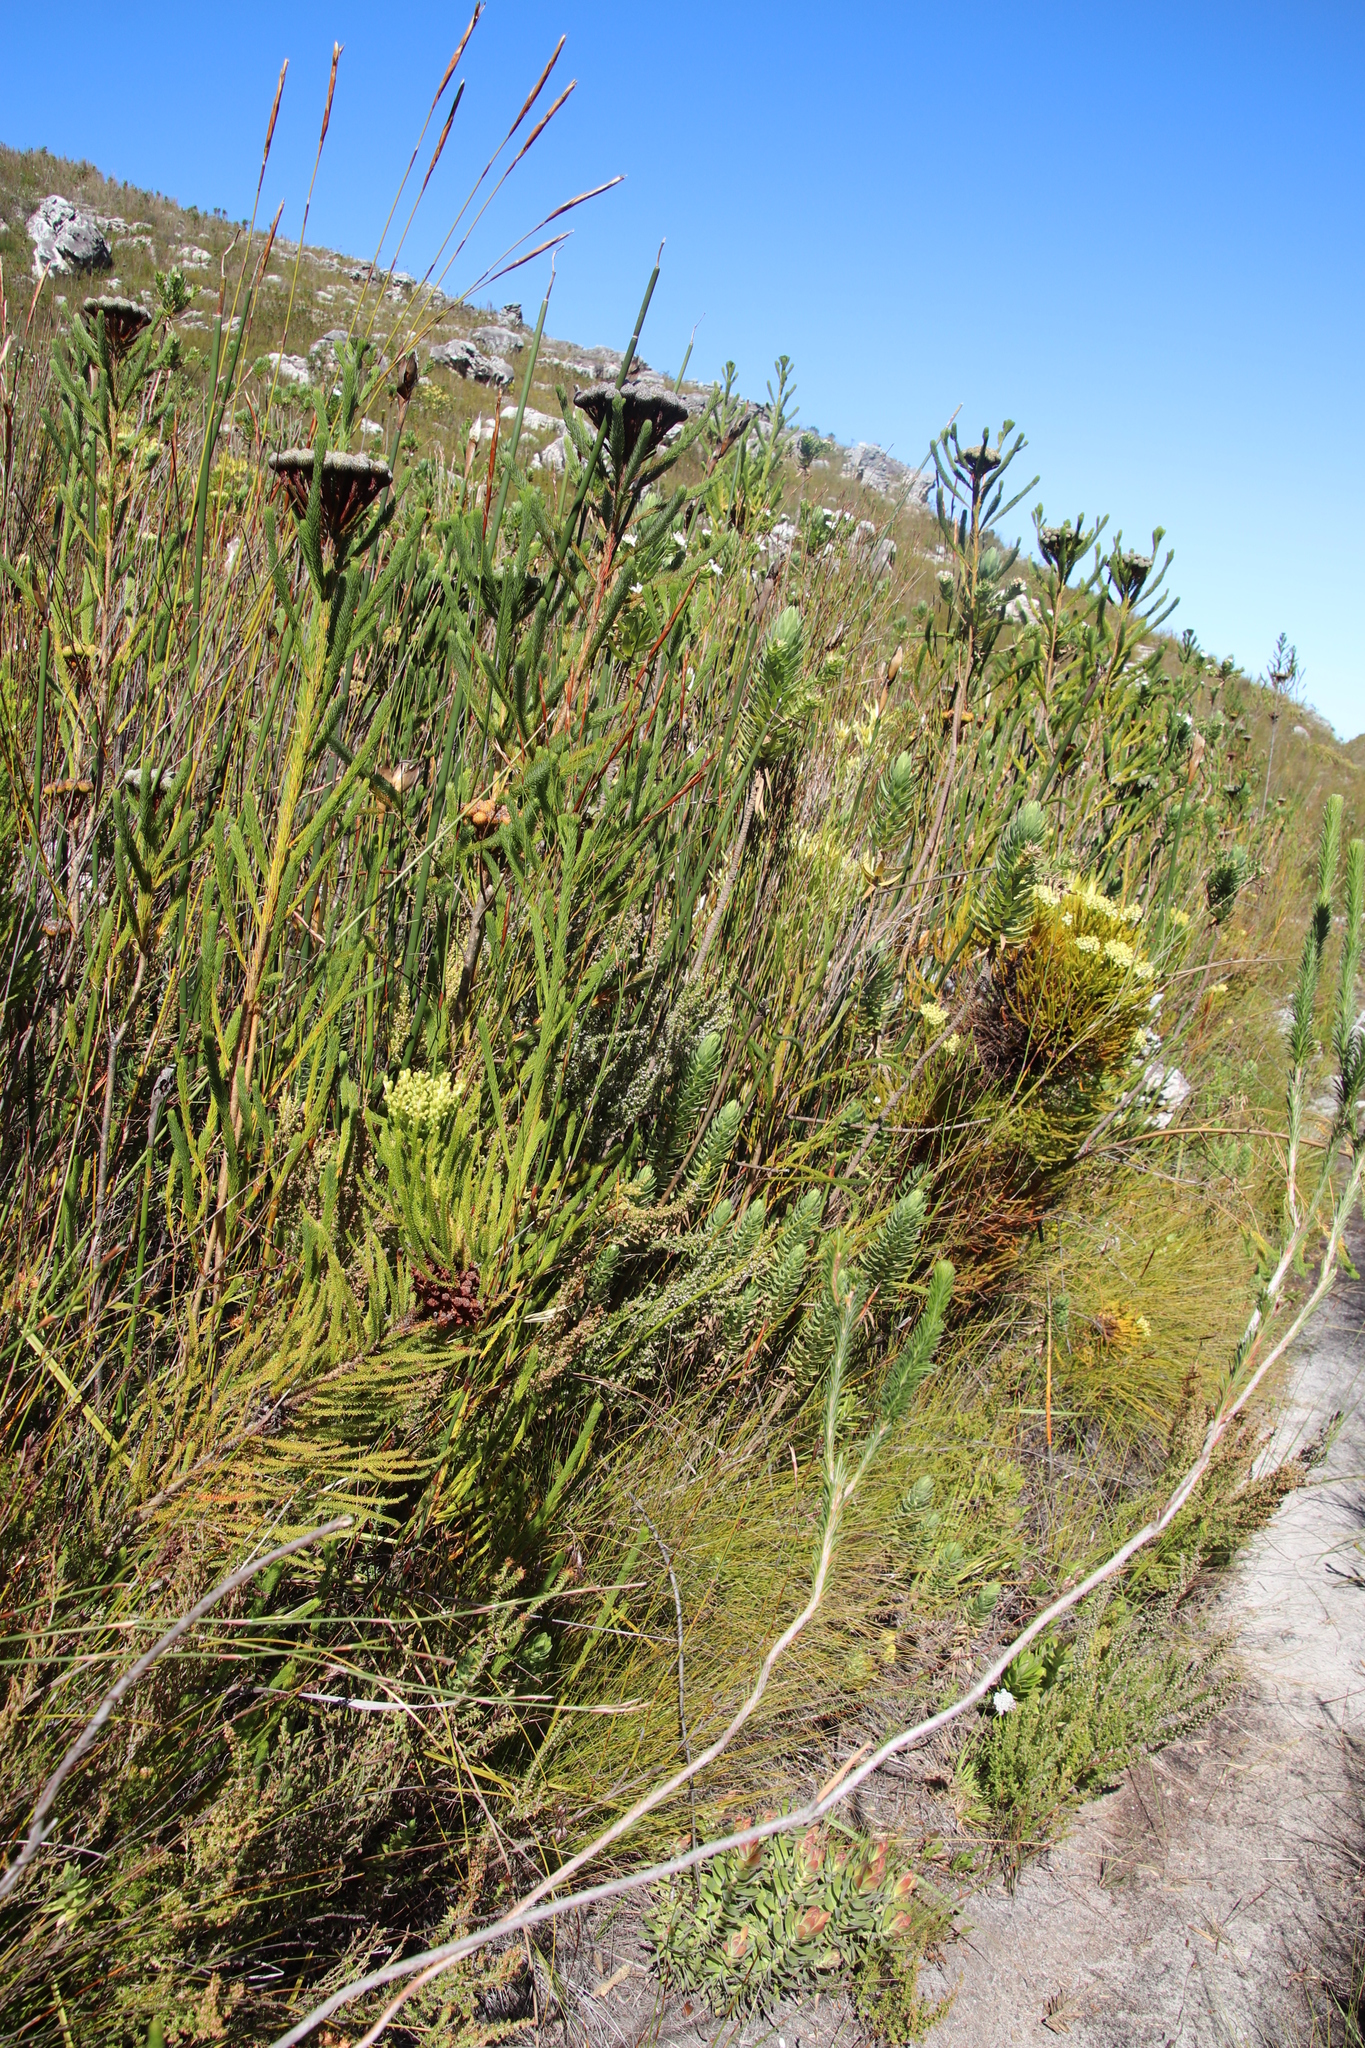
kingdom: Plantae
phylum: Tracheophyta
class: Magnoliopsida
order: Ericales
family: Ericaceae
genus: Erica
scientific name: Erica sessiliflora
